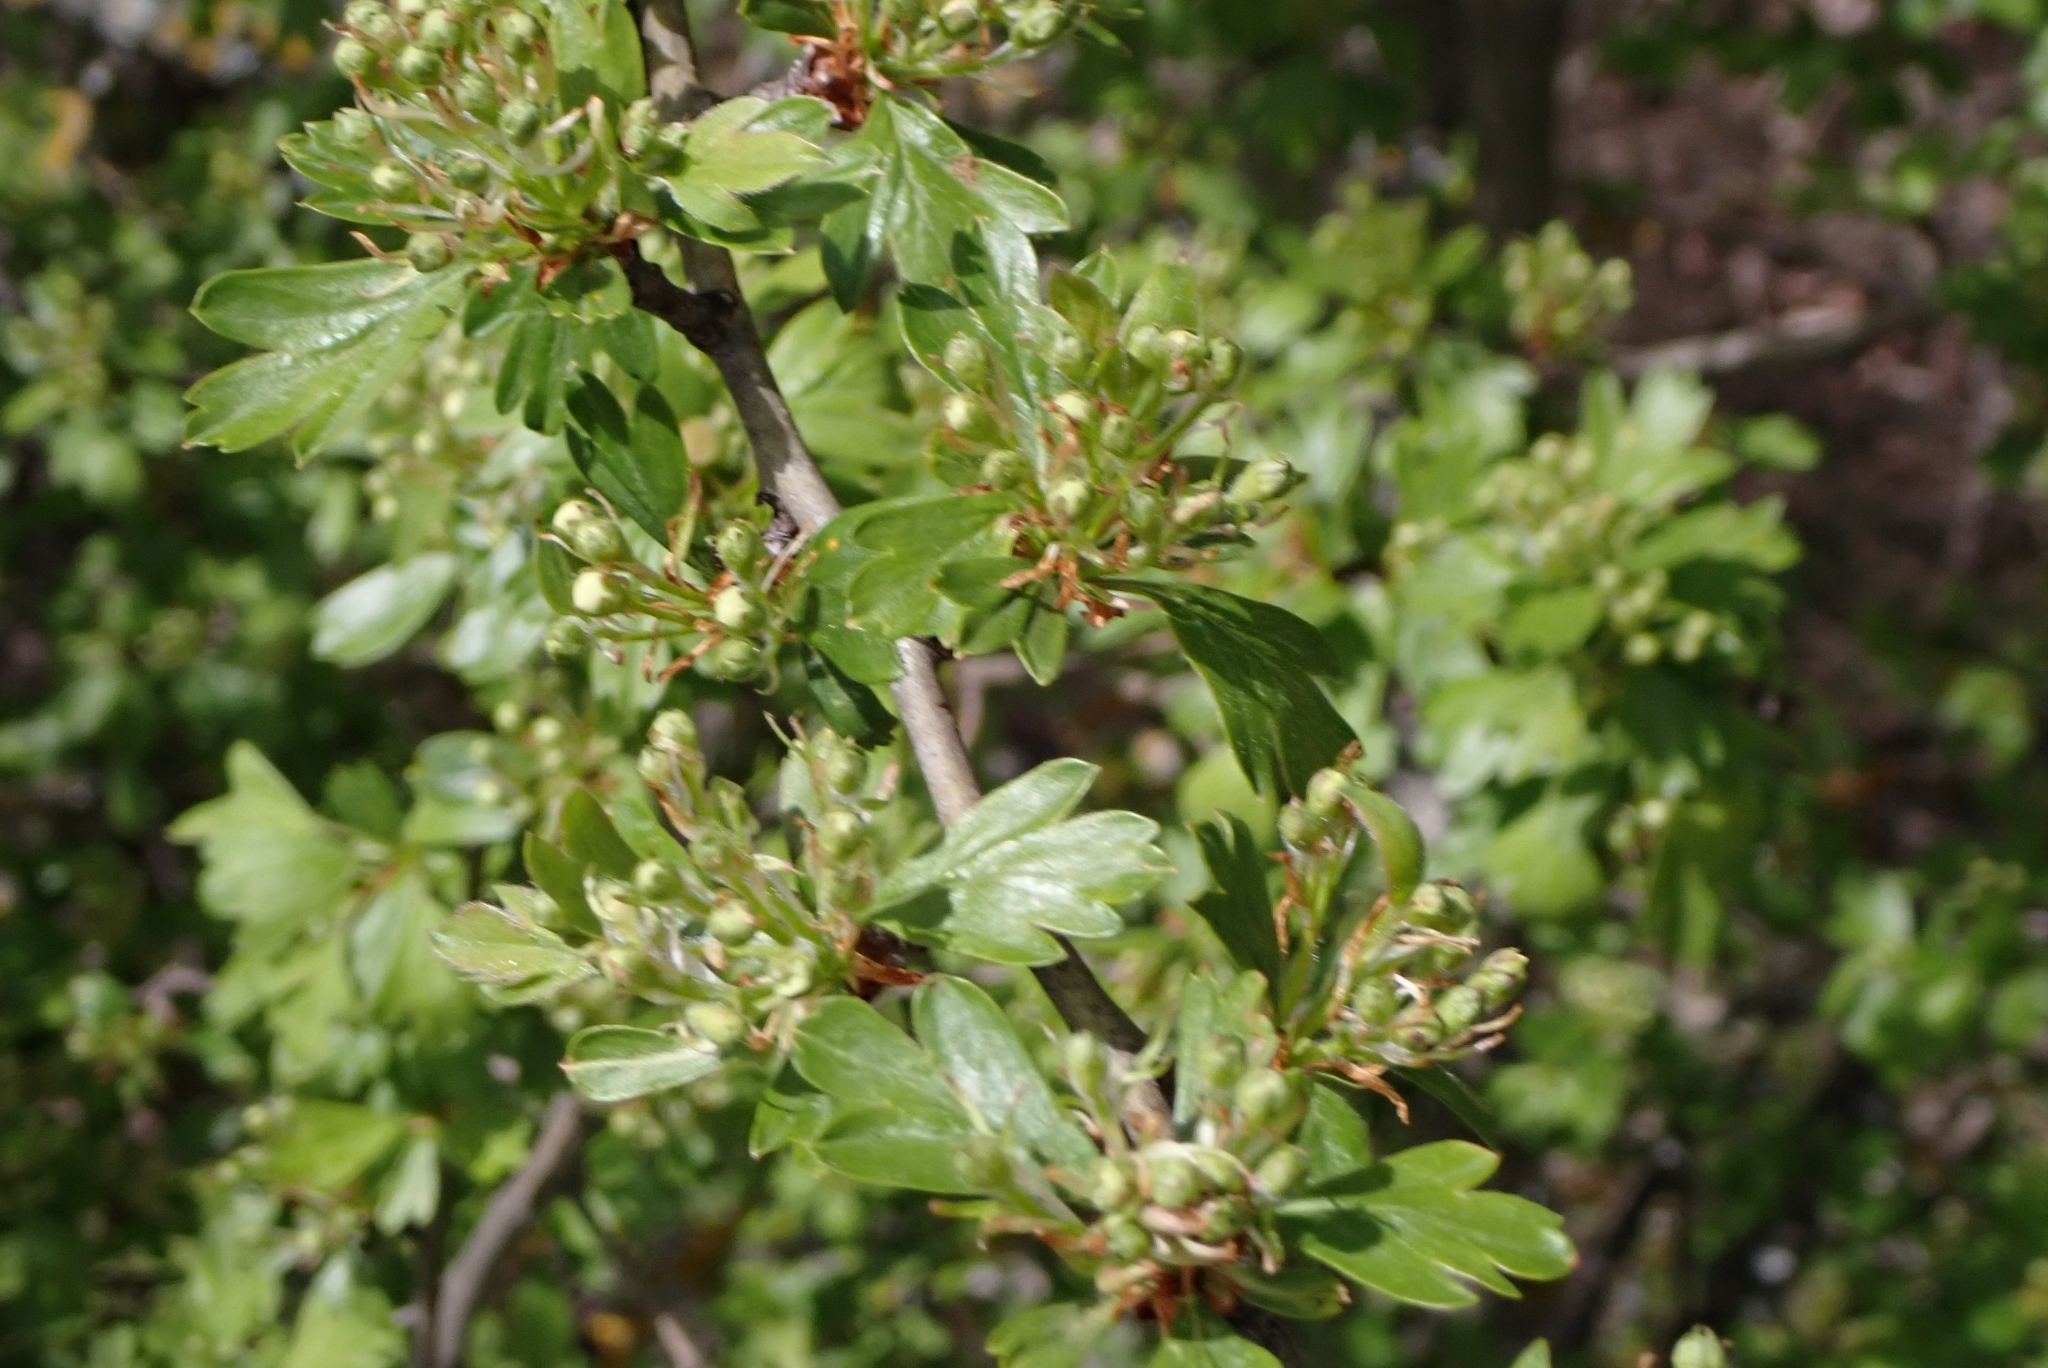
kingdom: Plantae
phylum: Tracheophyta
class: Magnoliopsida
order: Rosales
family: Rosaceae
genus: Crataegus
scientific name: Crataegus monogyna
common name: Hawthorn
